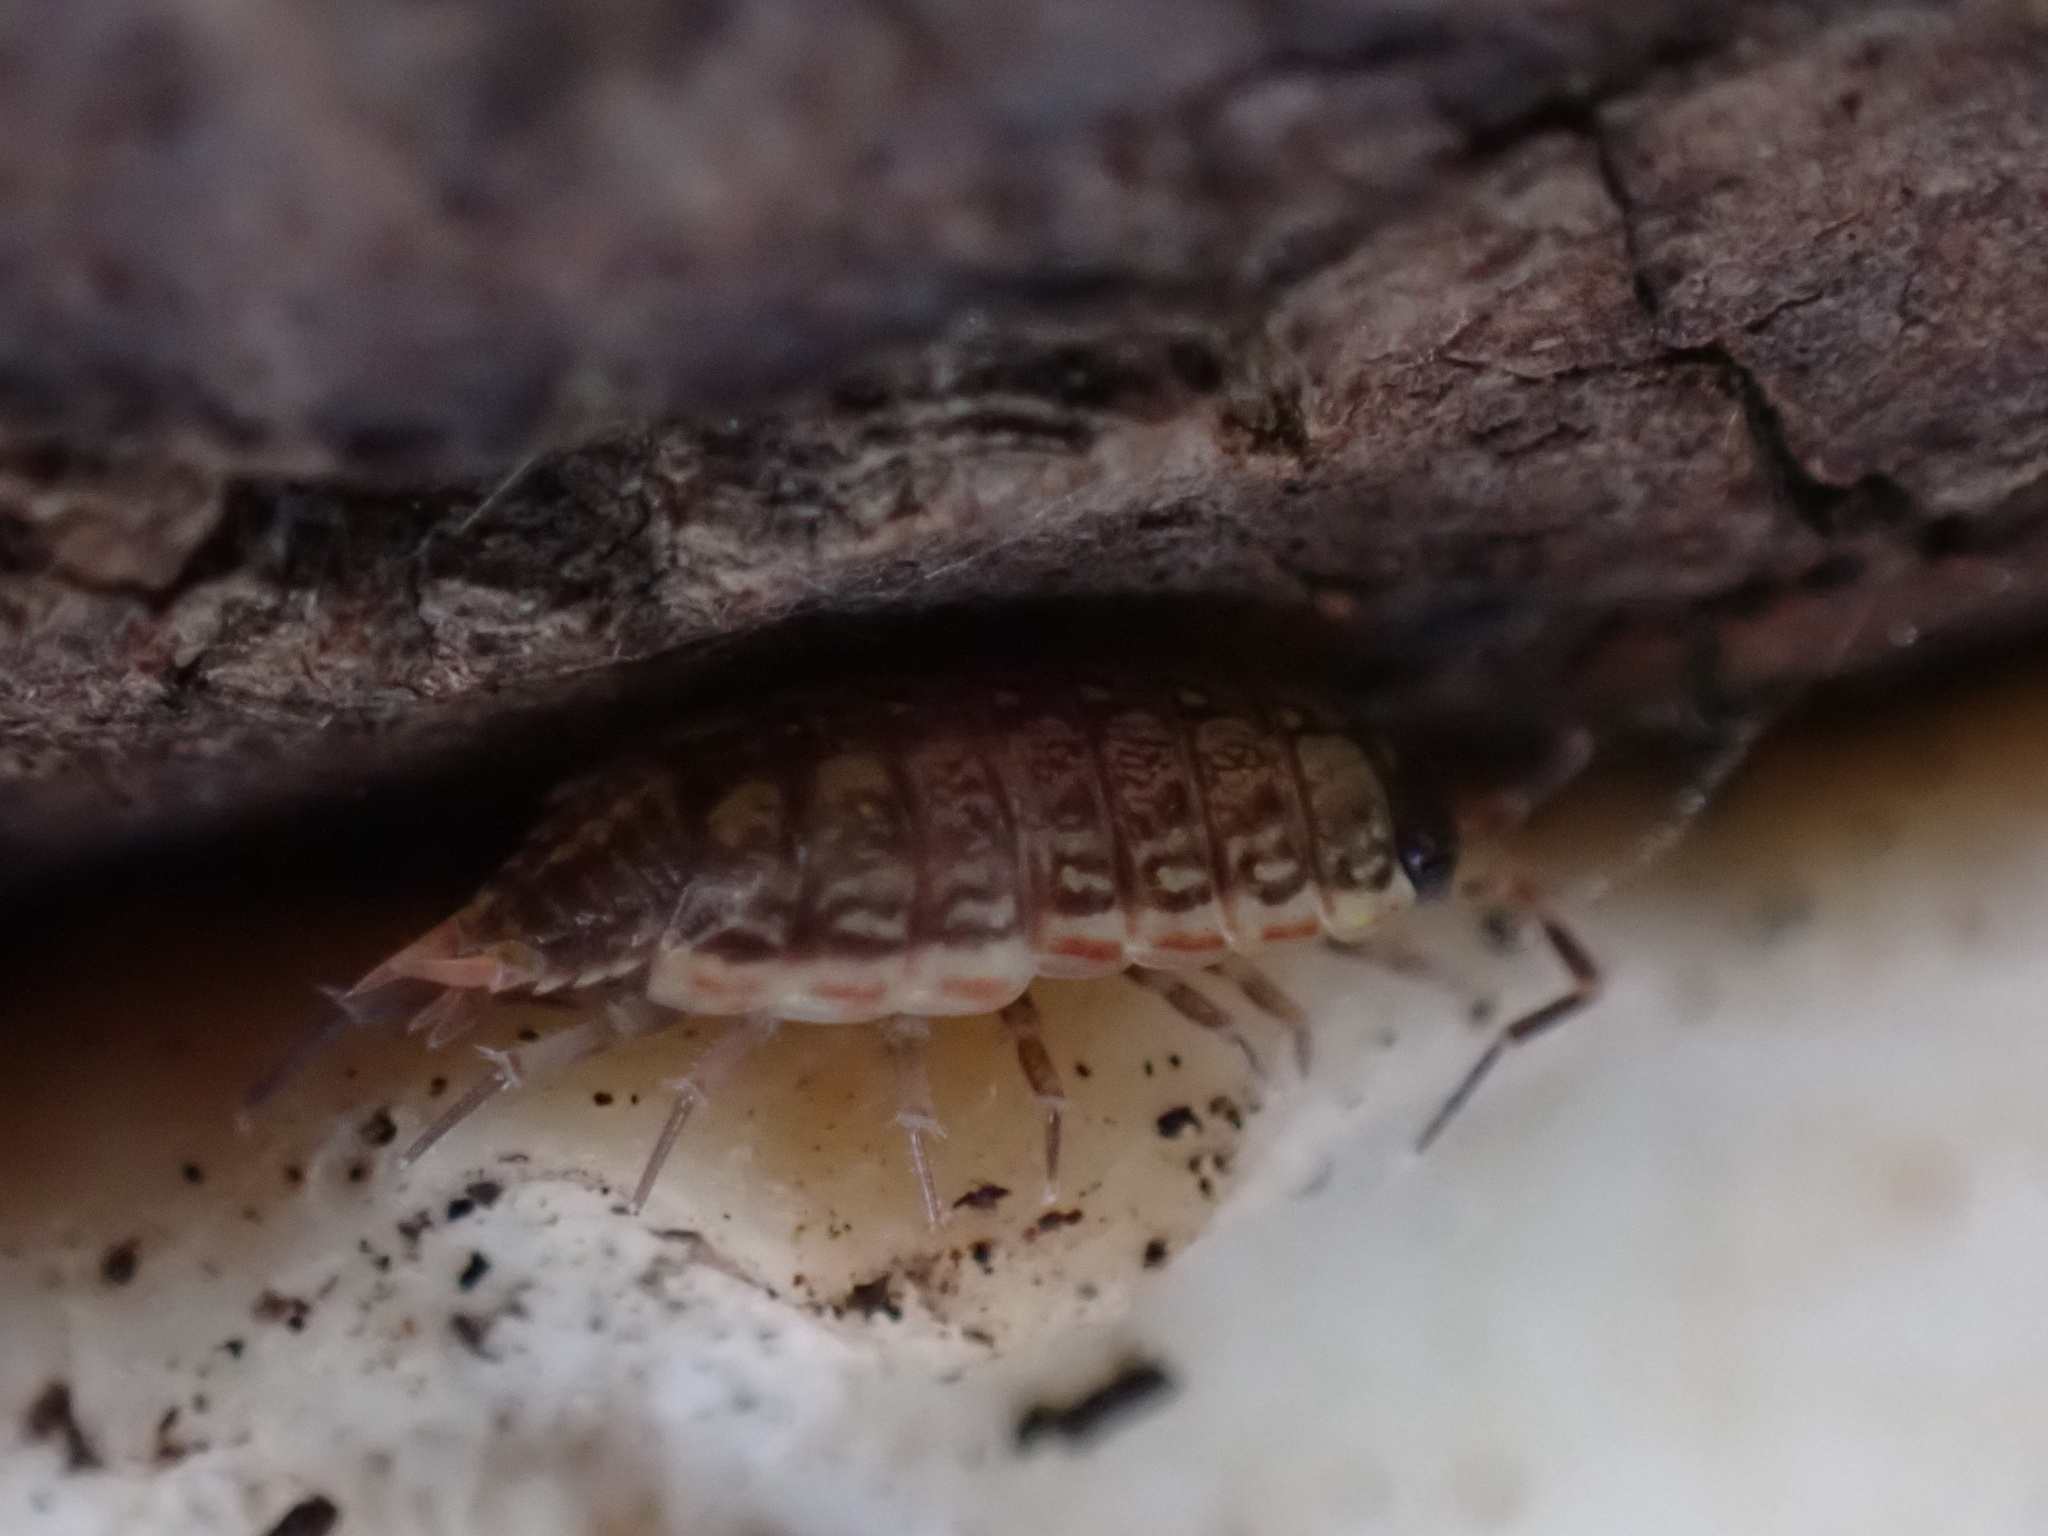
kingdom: Animalia
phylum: Arthropoda
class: Malacostraca
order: Isopoda
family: Philosciidae
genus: Philoscia
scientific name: Philoscia muscorum
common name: Common striped woodlouse
